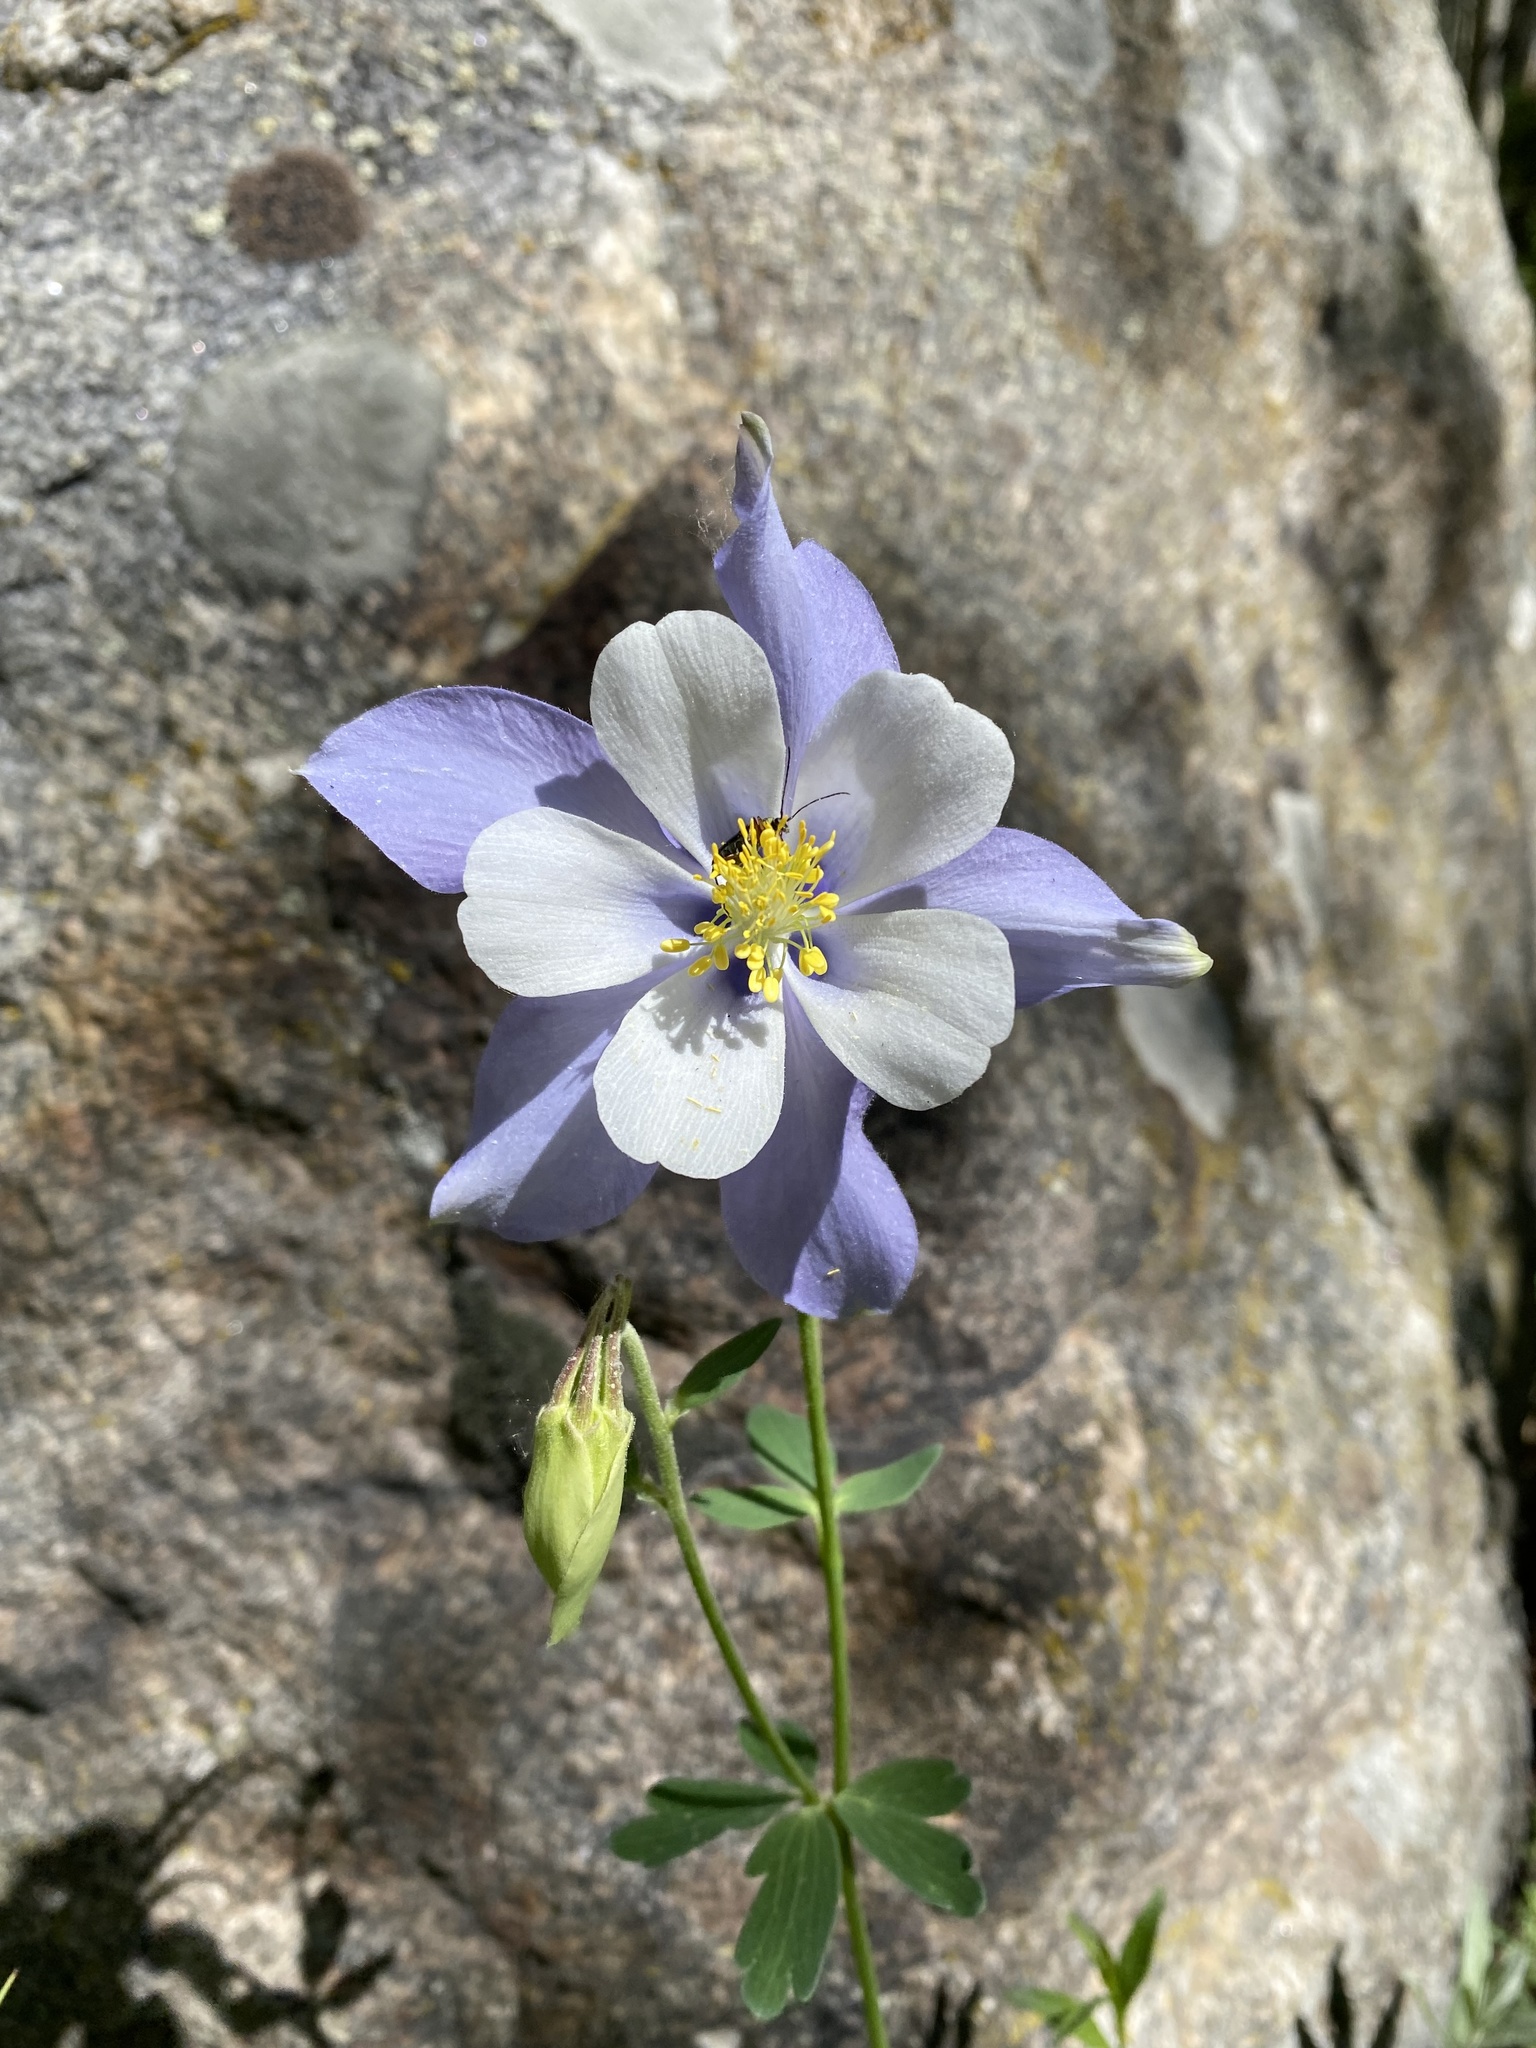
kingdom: Plantae
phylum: Tracheophyta
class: Magnoliopsida
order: Ranunculales
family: Ranunculaceae
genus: Aquilegia
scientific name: Aquilegia coerulea
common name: Rocky mountain columbine
